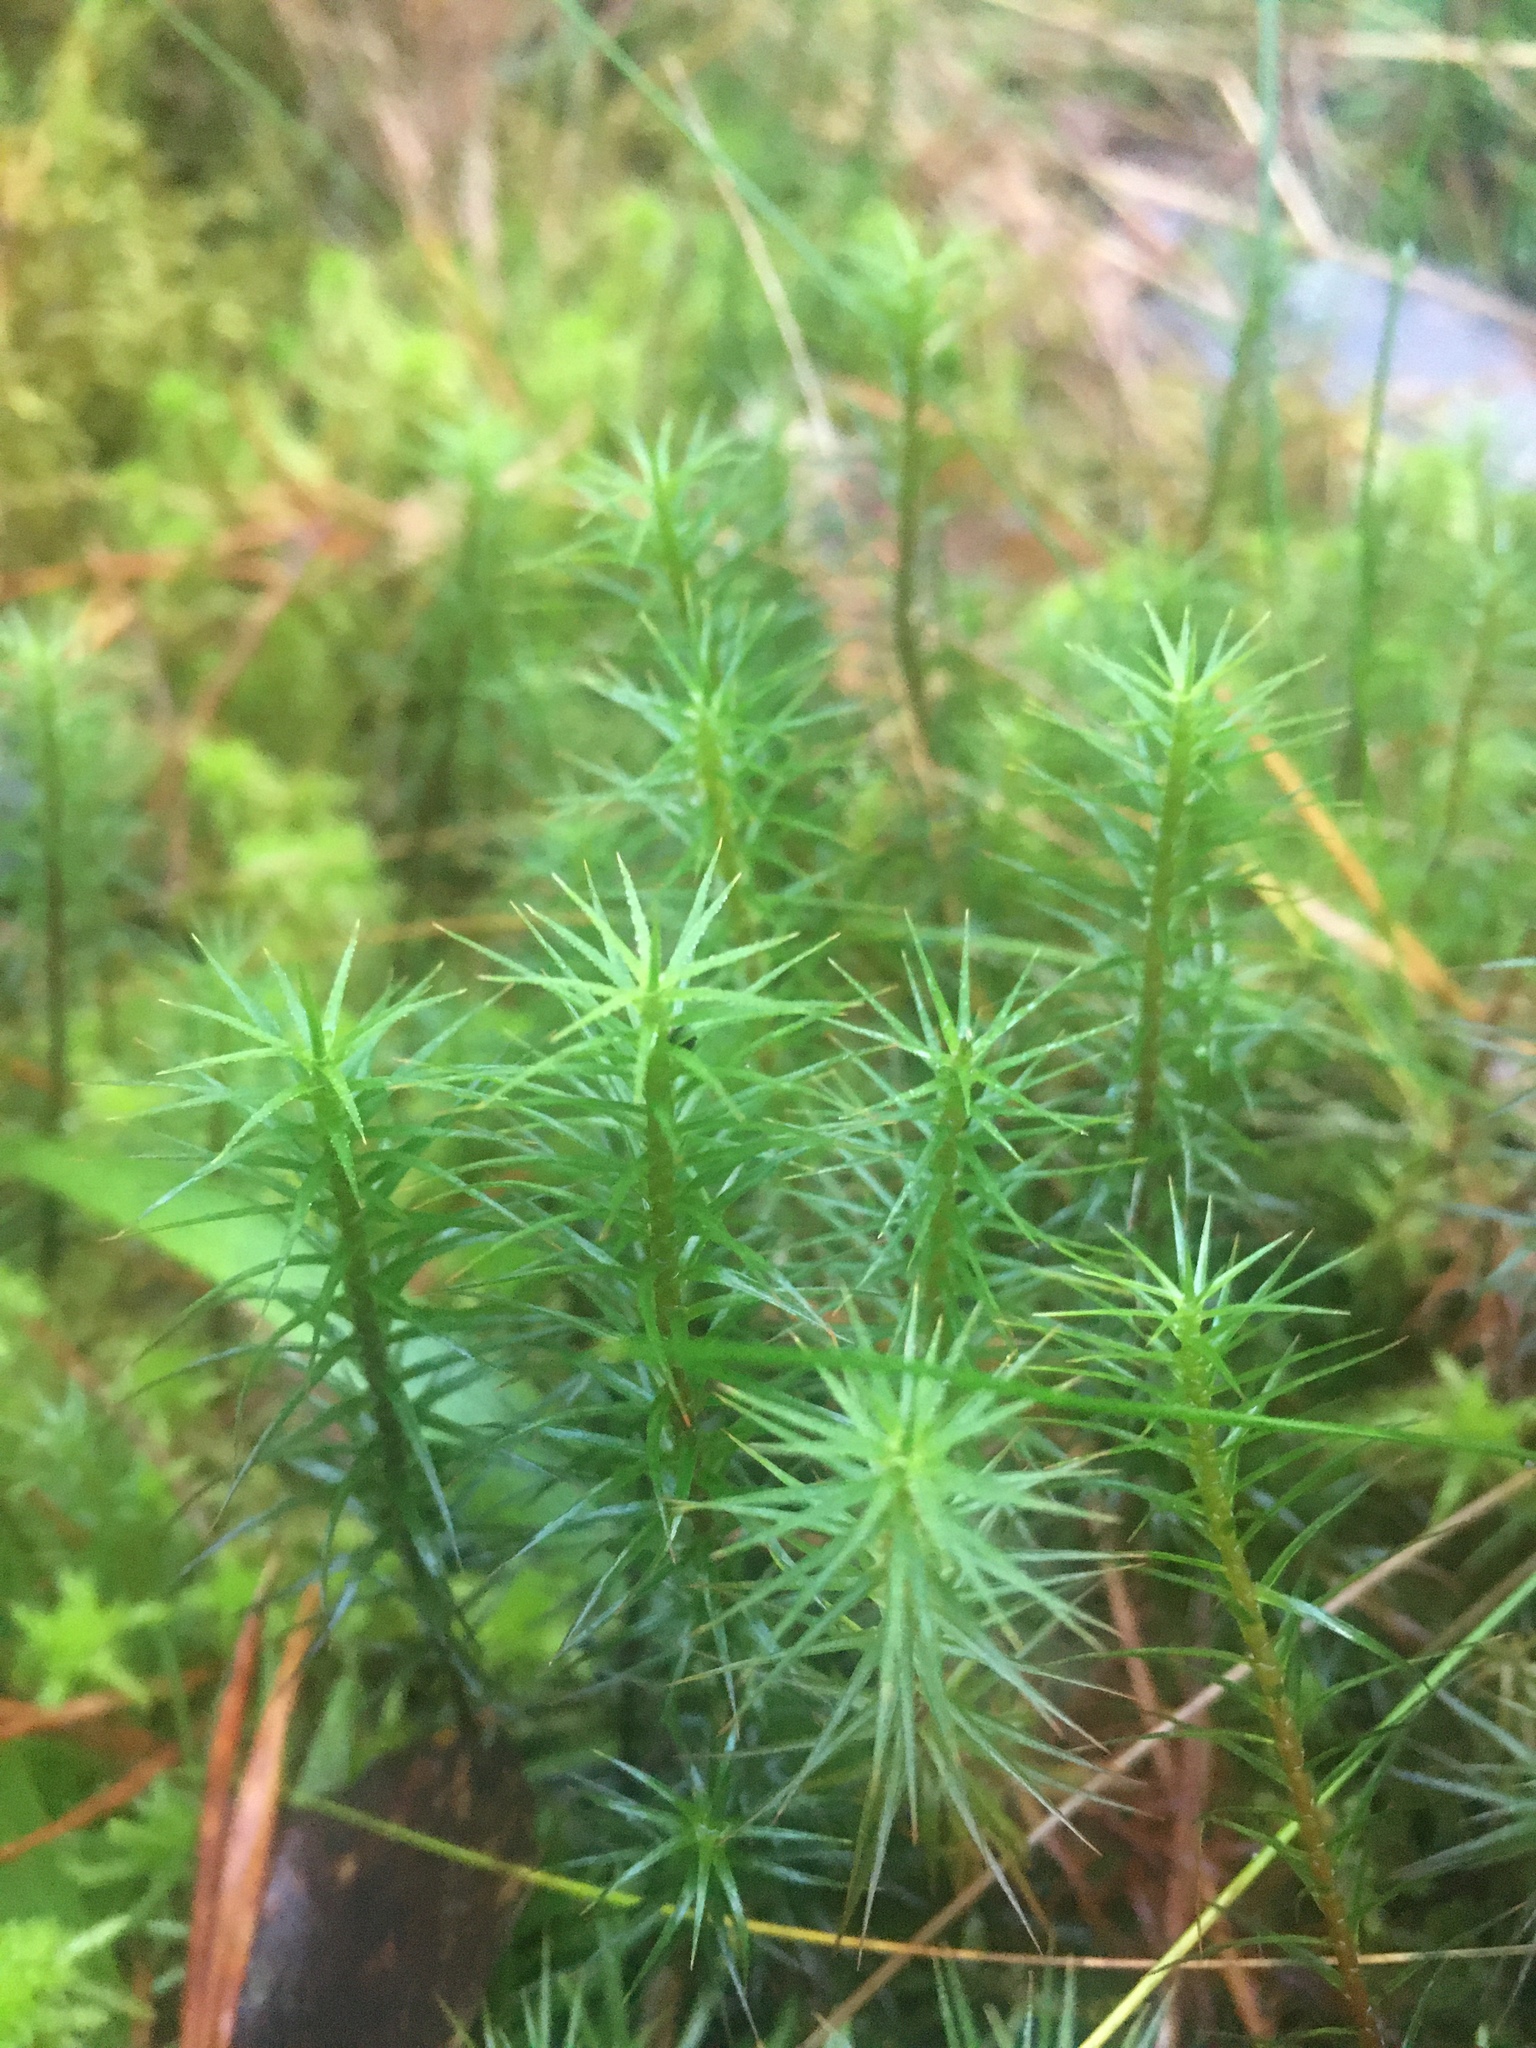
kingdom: Plantae
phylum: Bryophyta
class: Polytrichopsida
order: Polytrichales
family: Polytrichaceae
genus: Polytrichum
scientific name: Polytrichum commune
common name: Common haircap
